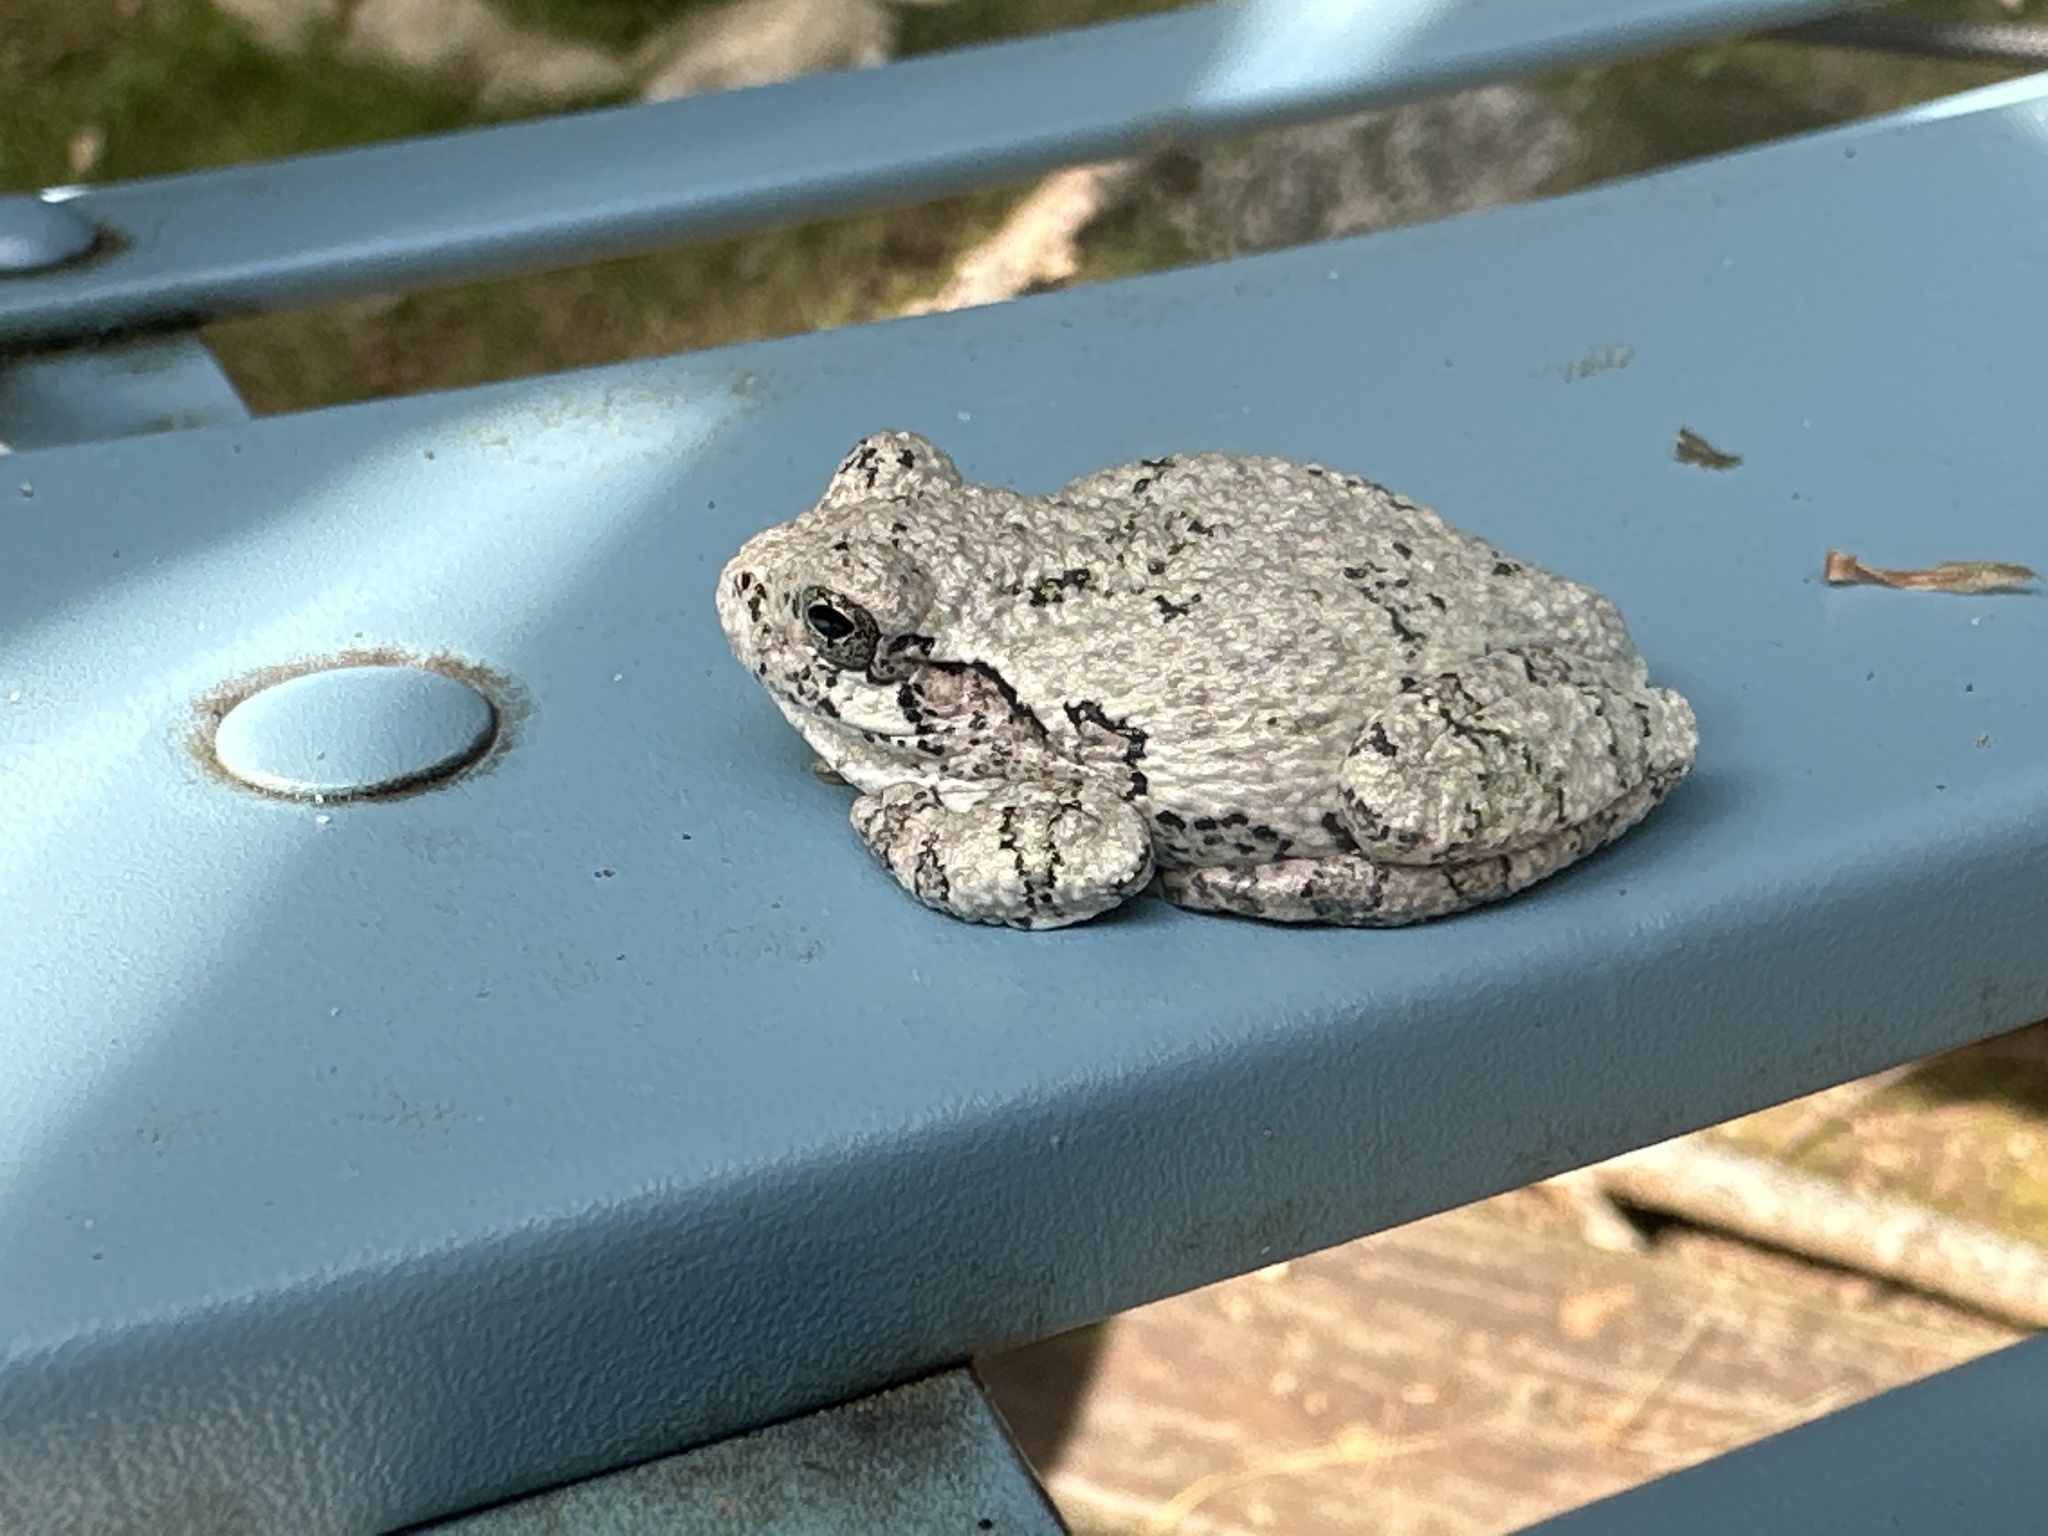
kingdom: Animalia
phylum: Chordata
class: Amphibia
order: Anura
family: Hylidae
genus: Dryophytes
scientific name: Dryophytes versicolor
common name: Gray treefrog
